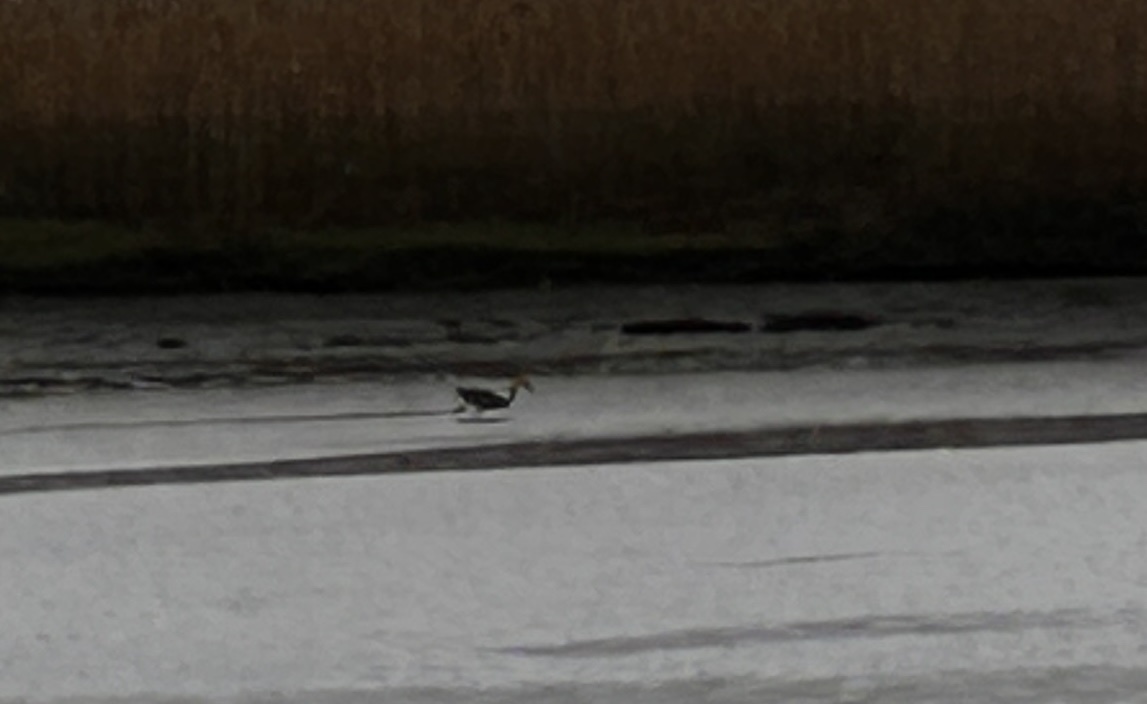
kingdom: Animalia
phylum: Chordata
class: Aves
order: Pelecaniformes
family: Ardeidae
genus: Ardea
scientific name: Ardea herodias
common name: Great blue heron
